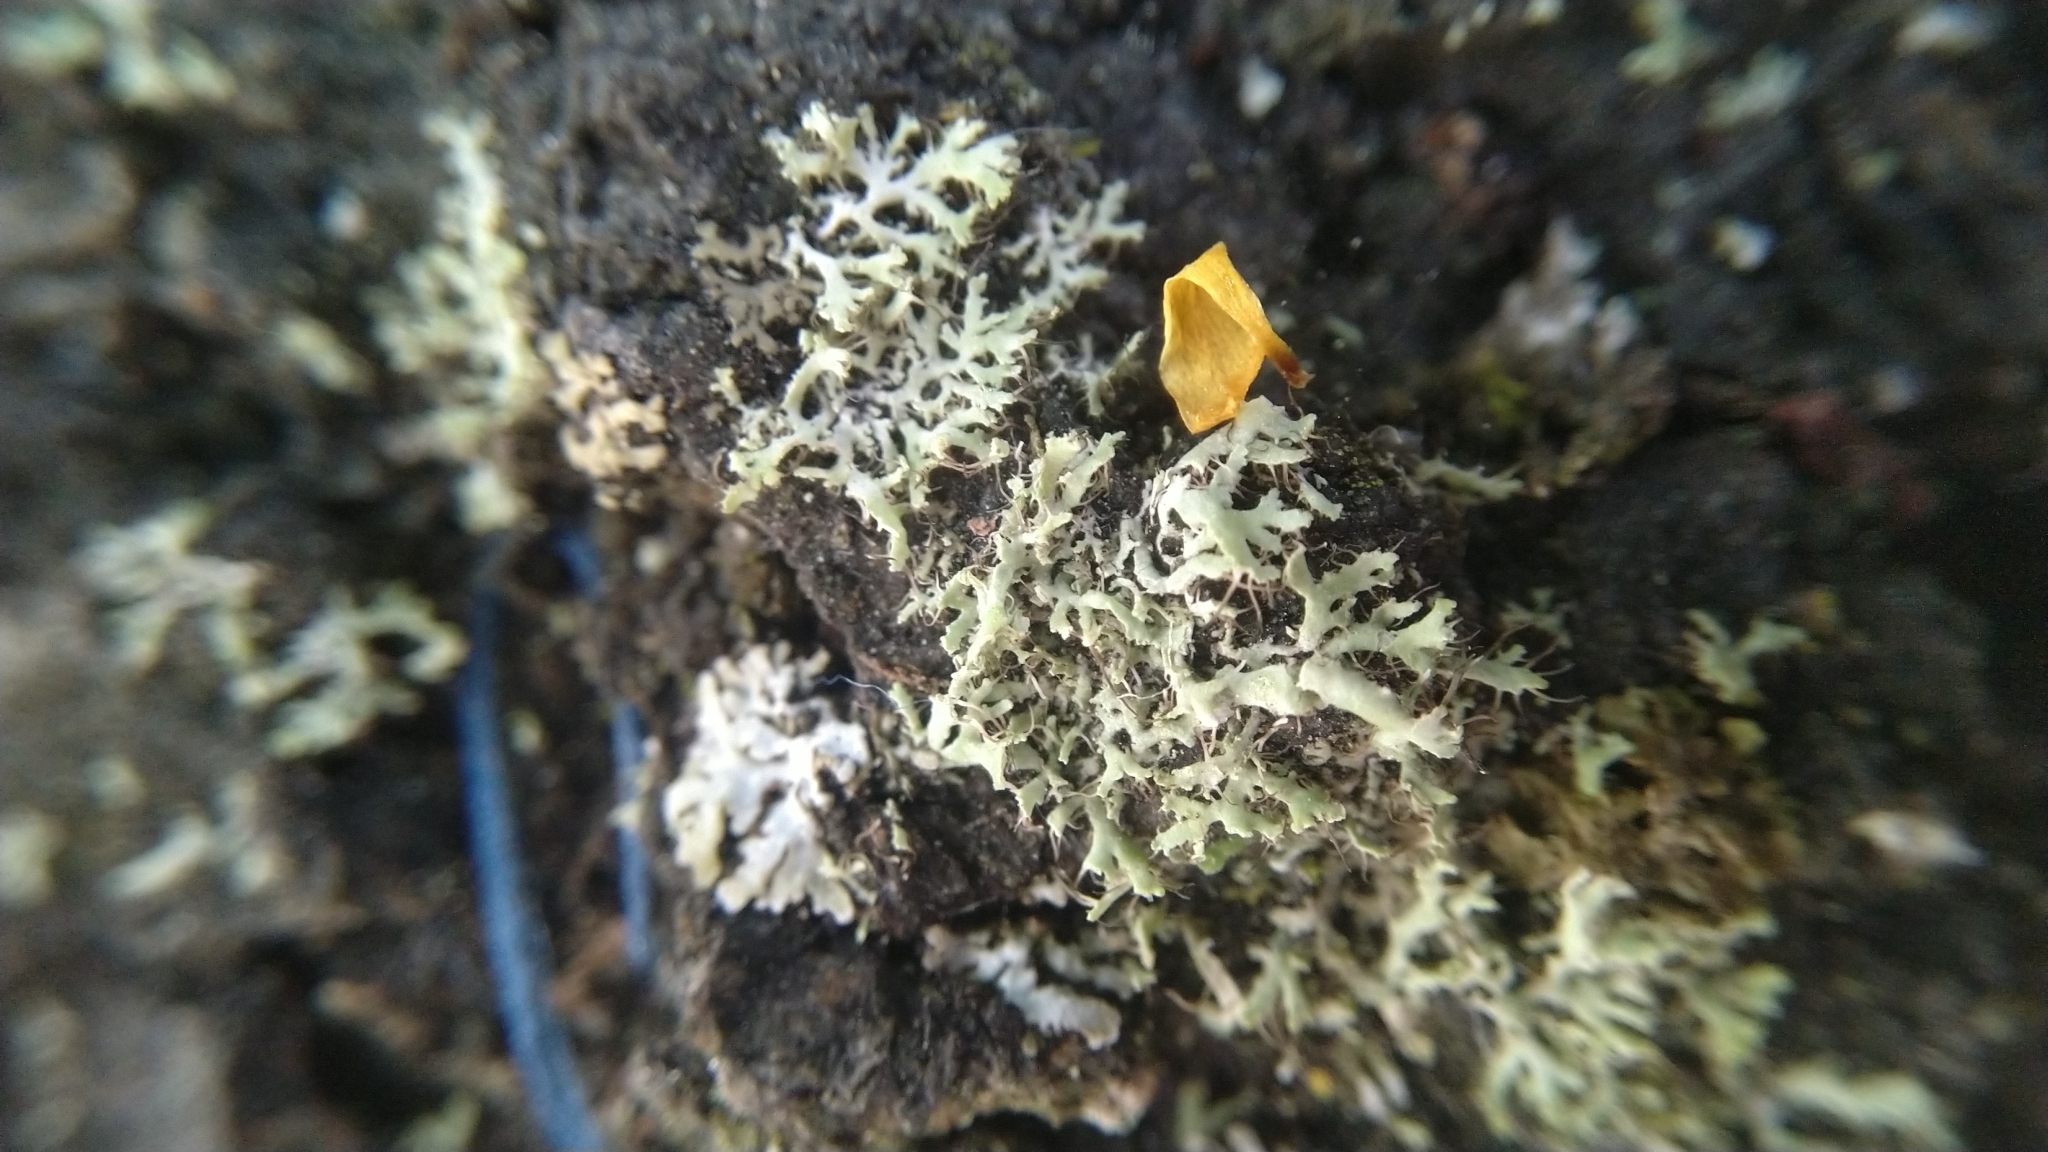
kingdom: Fungi
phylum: Ascomycota
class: Lecanoromycetes
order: Caliciales
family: Physciaceae
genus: Physcia
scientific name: Physcia tenella
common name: Fringed rosette lichen
